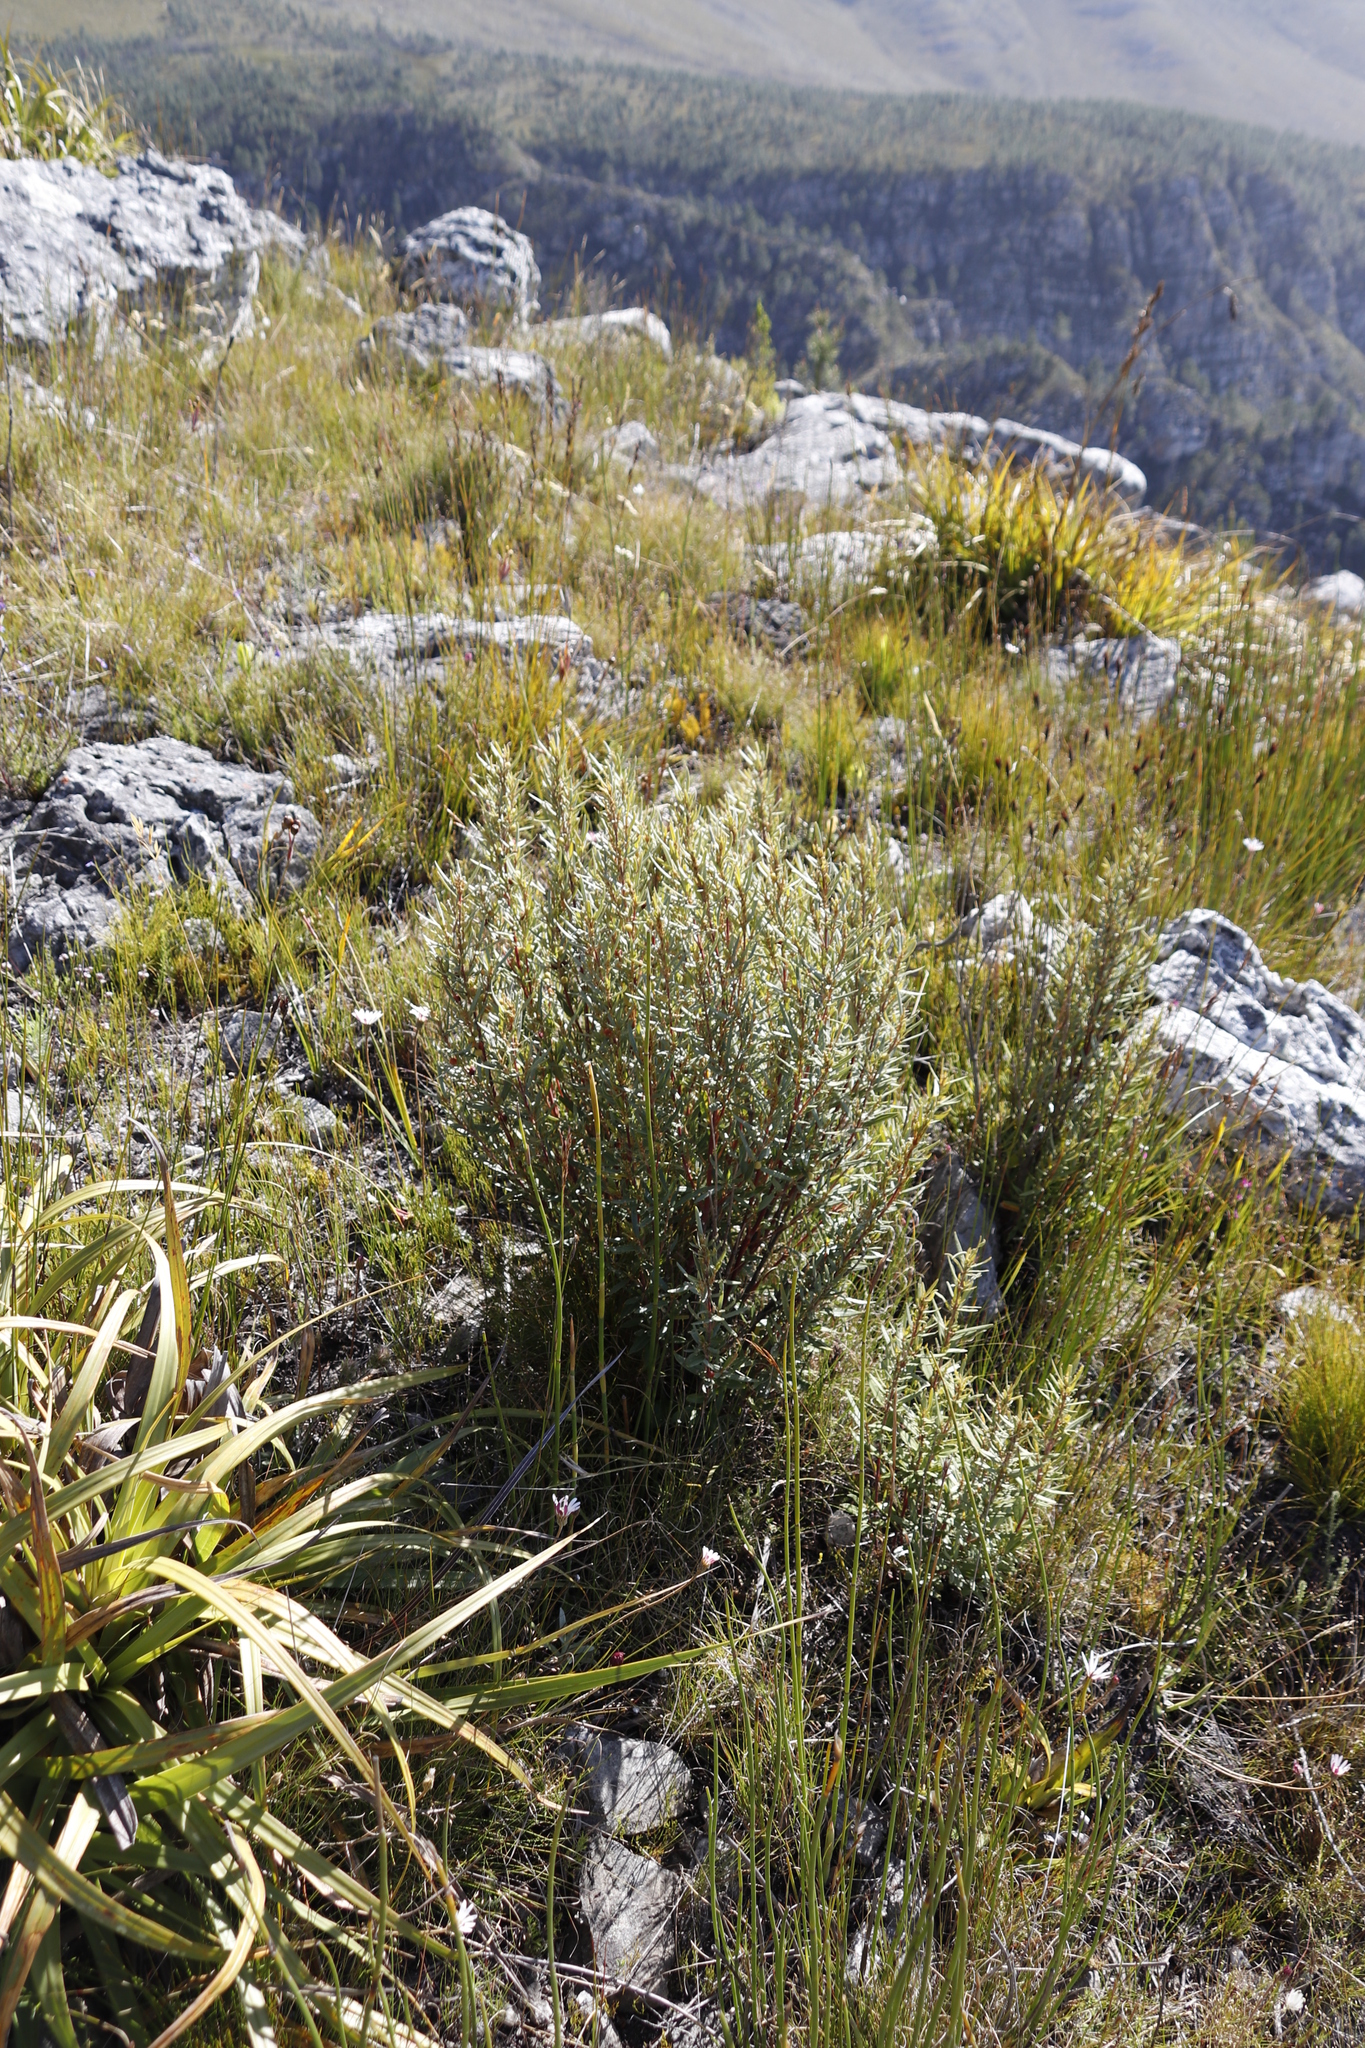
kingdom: Plantae
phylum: Tracheophyta
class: Magnoliopsida
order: Cornales
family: Grubbiaceae
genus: Grubbia
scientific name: Grubbia tomentosa
